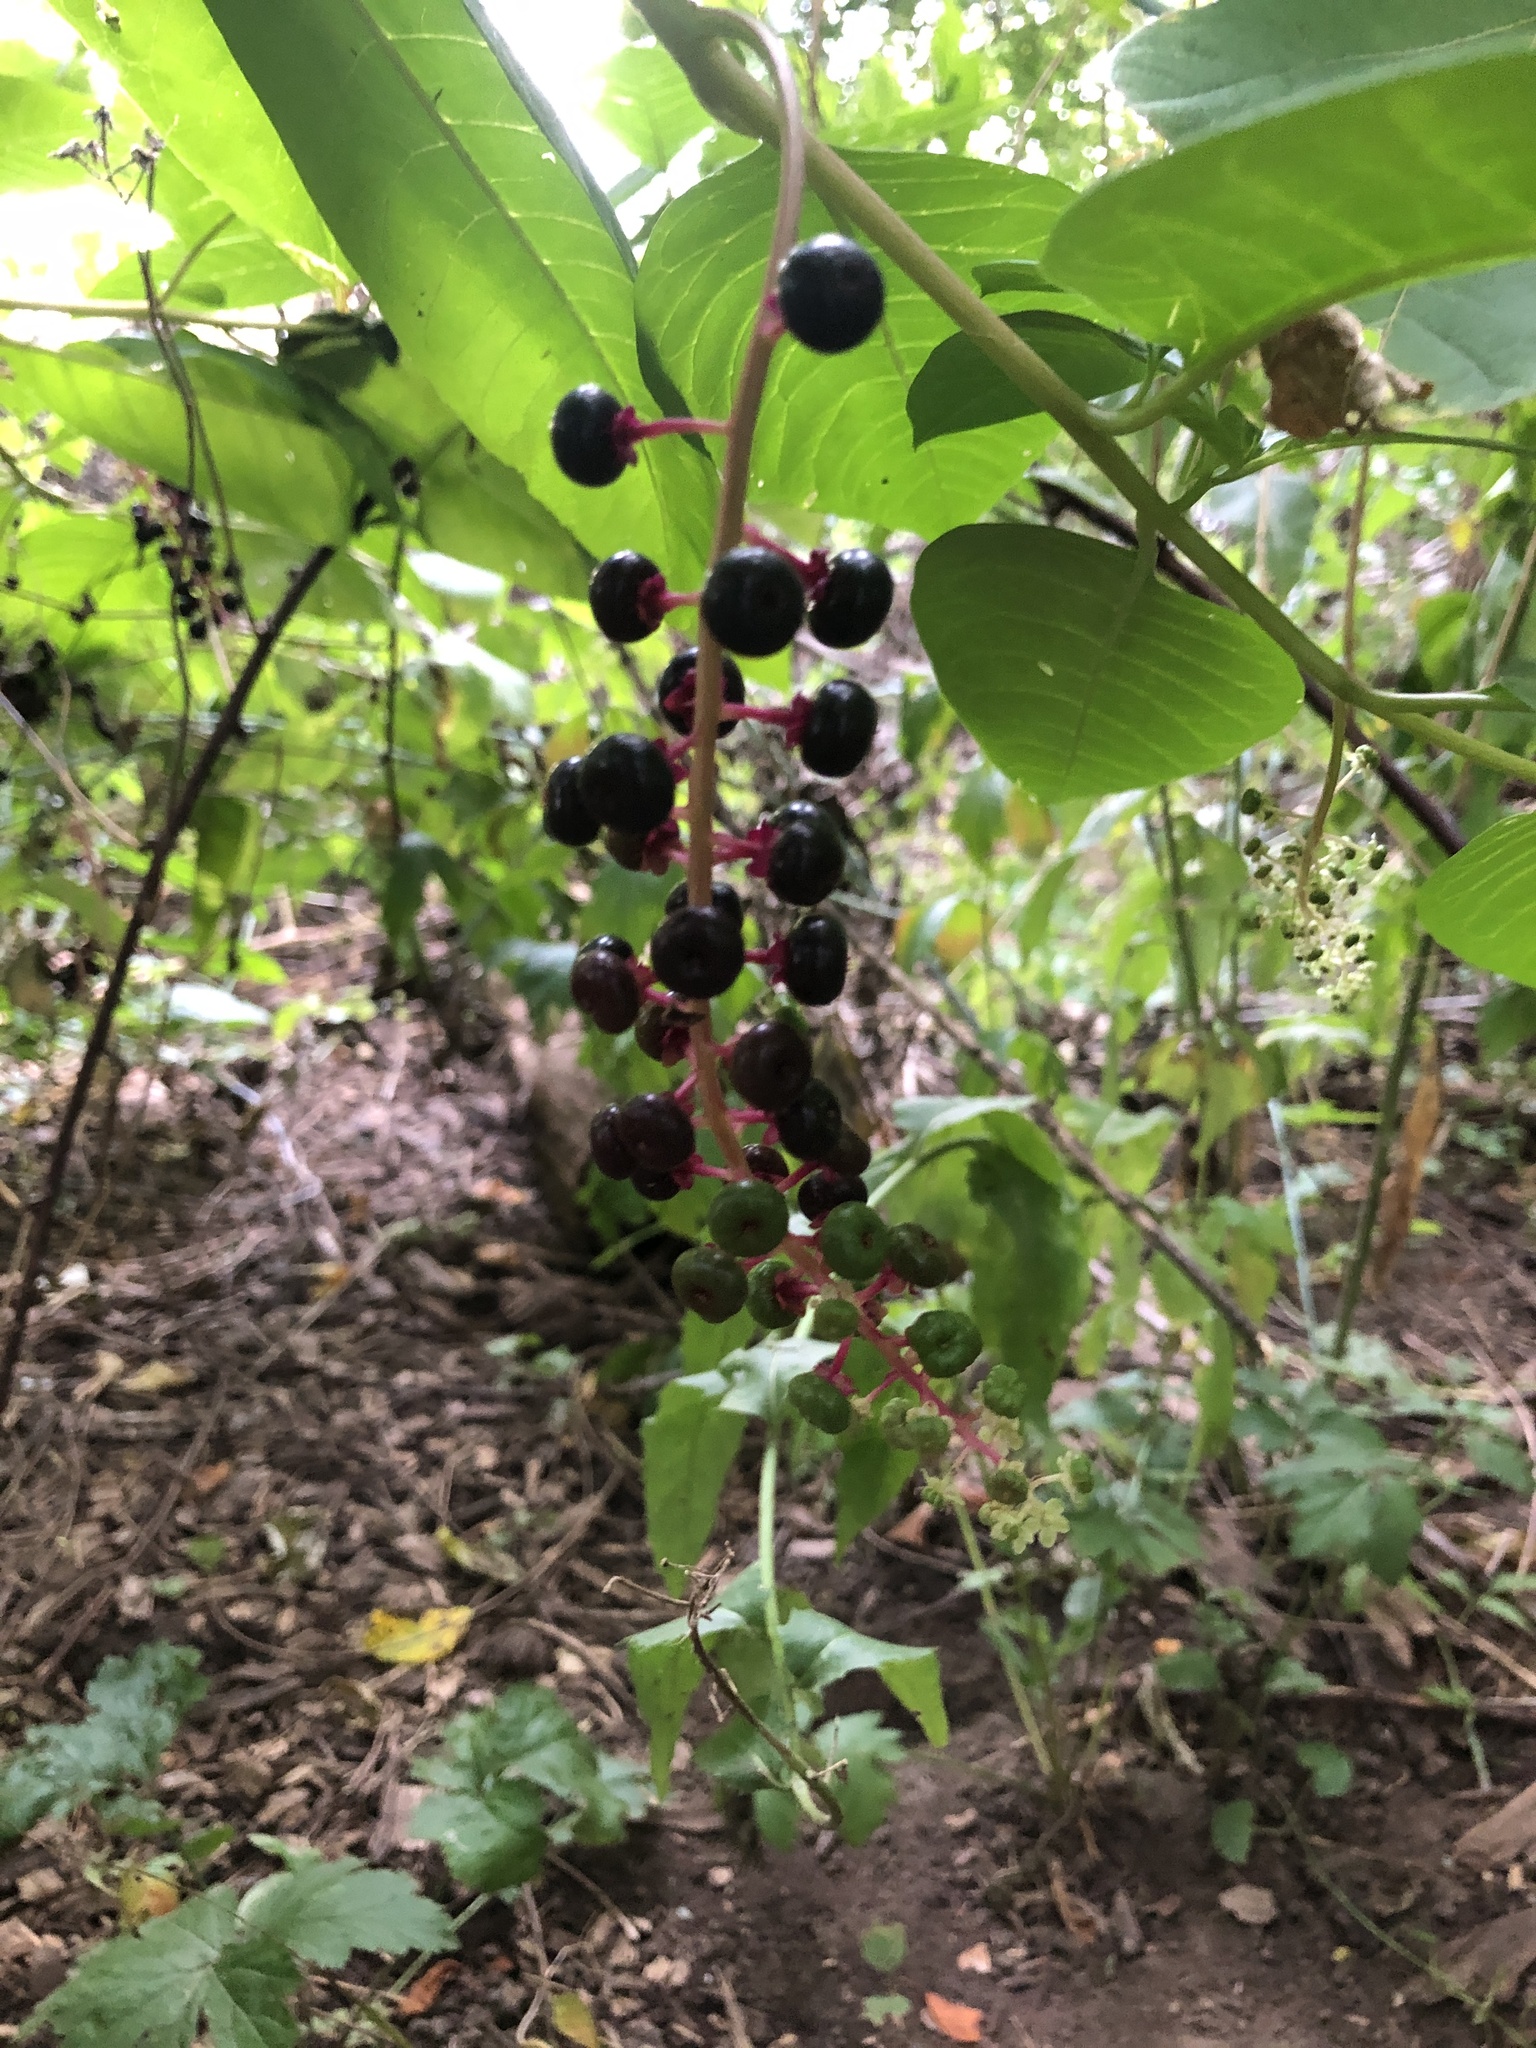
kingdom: Plantae
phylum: Tracheophyta
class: Magnoliopsida
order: Caryophyllales
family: Phytolaccaceae
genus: Phytolacca
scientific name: Phytolacca americana
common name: American pokeweed
